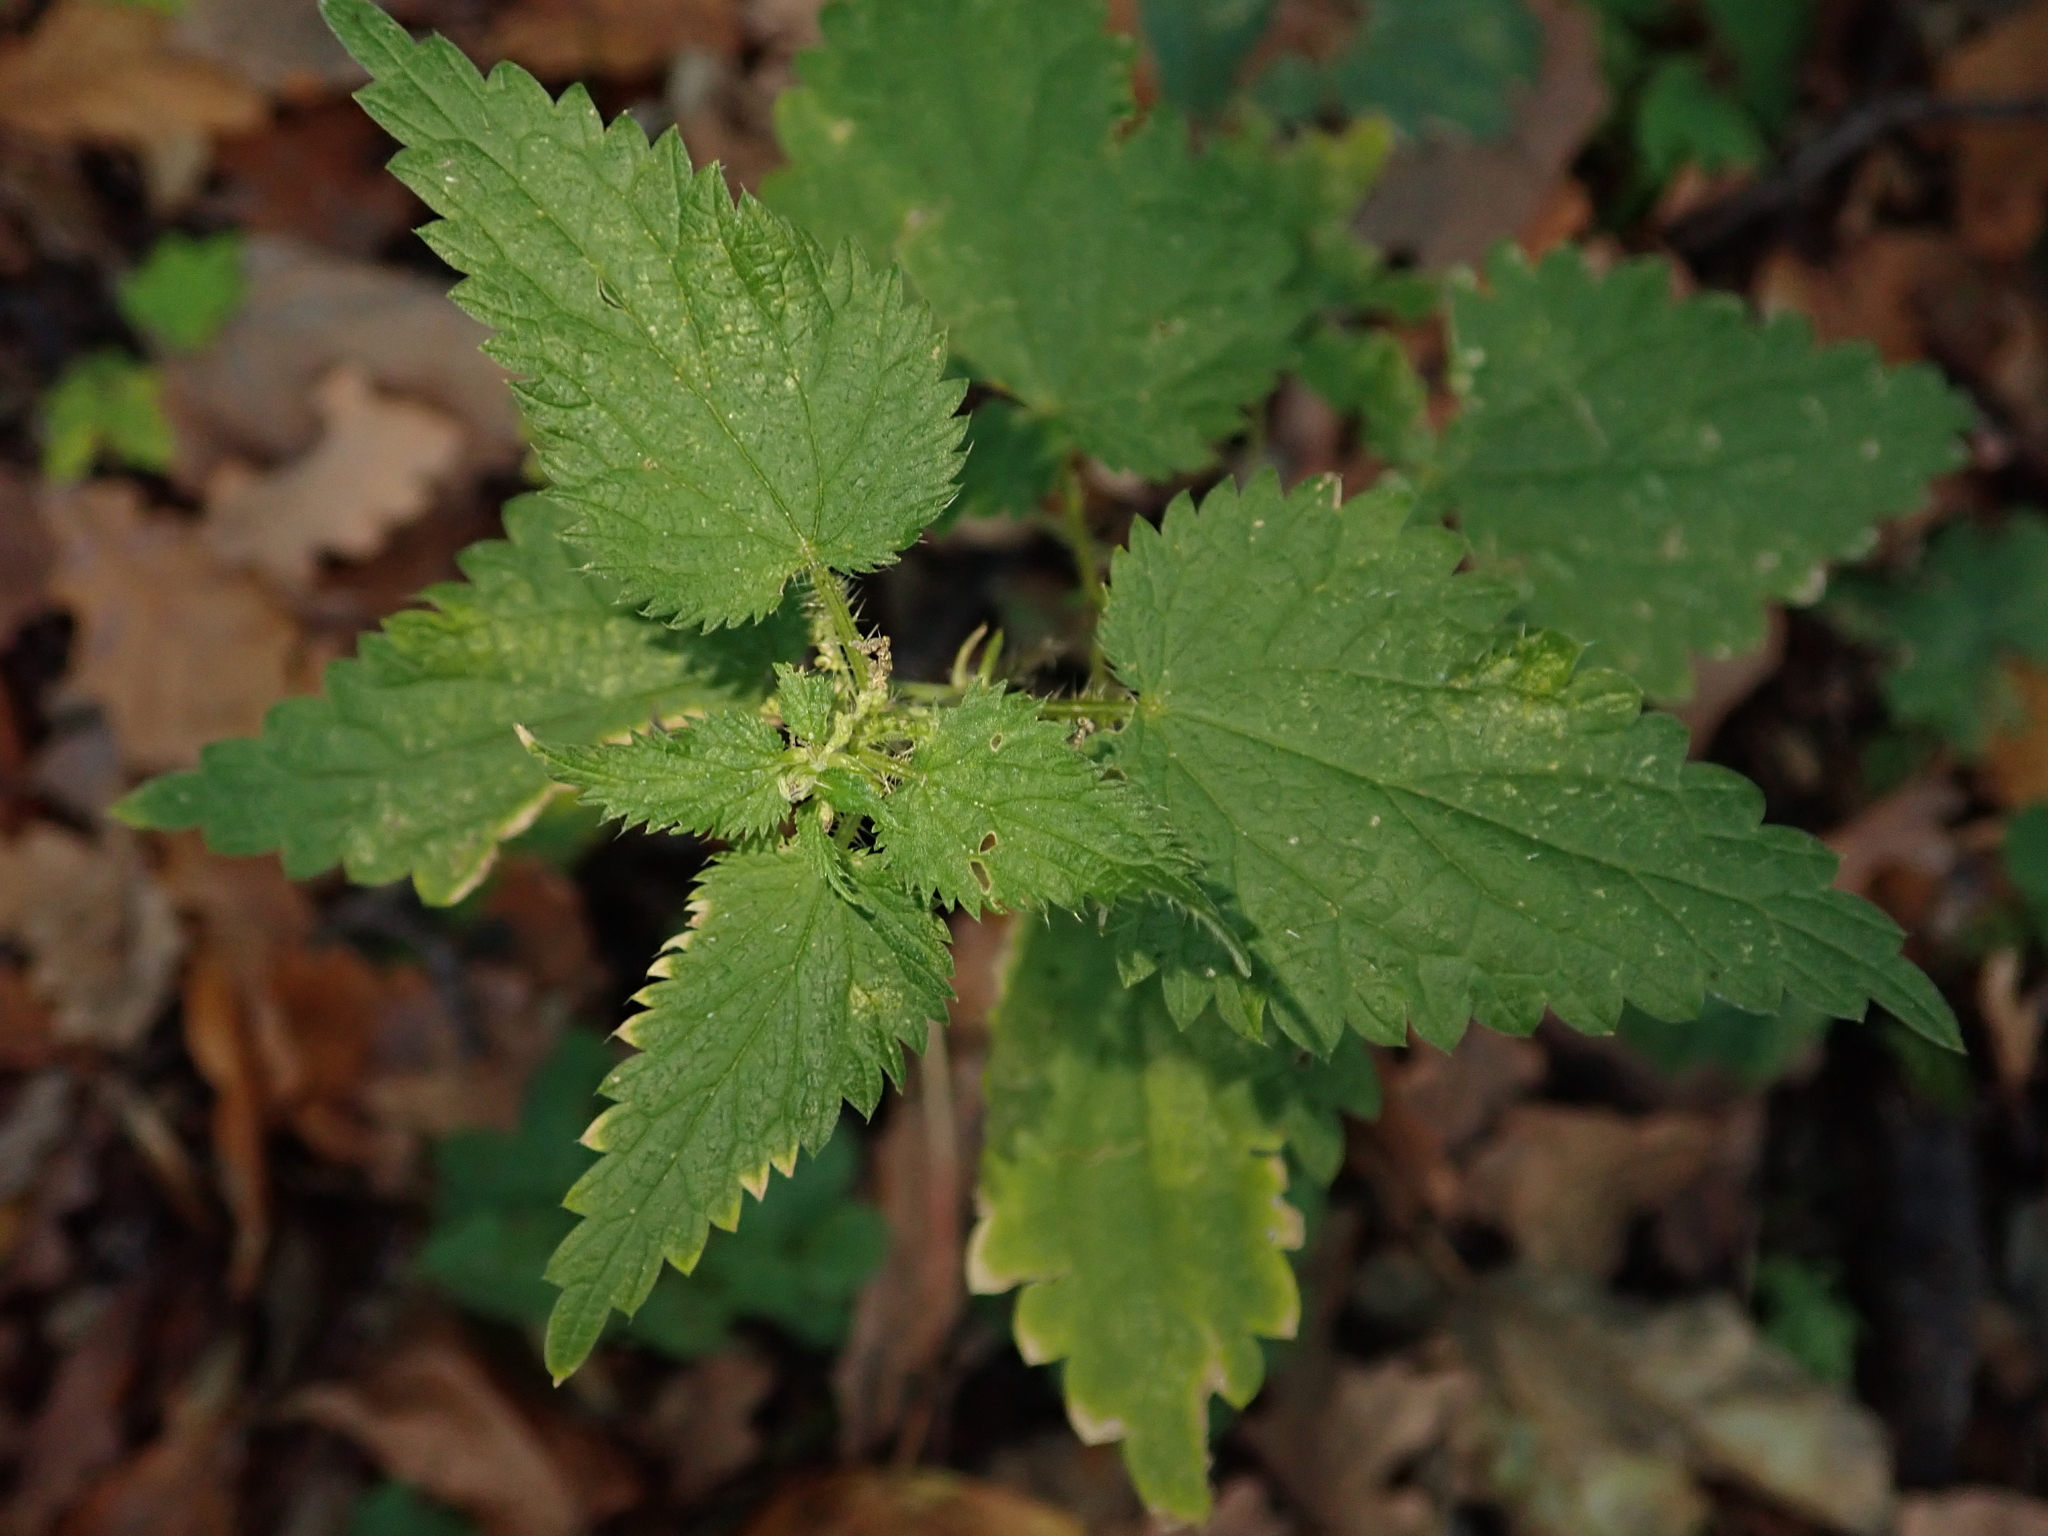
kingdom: Plantae
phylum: Tracheophyta
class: Magnoliopsida
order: Rosales
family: Urticaceae
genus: Urtica
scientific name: Urtica dioica
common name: Common nettle
